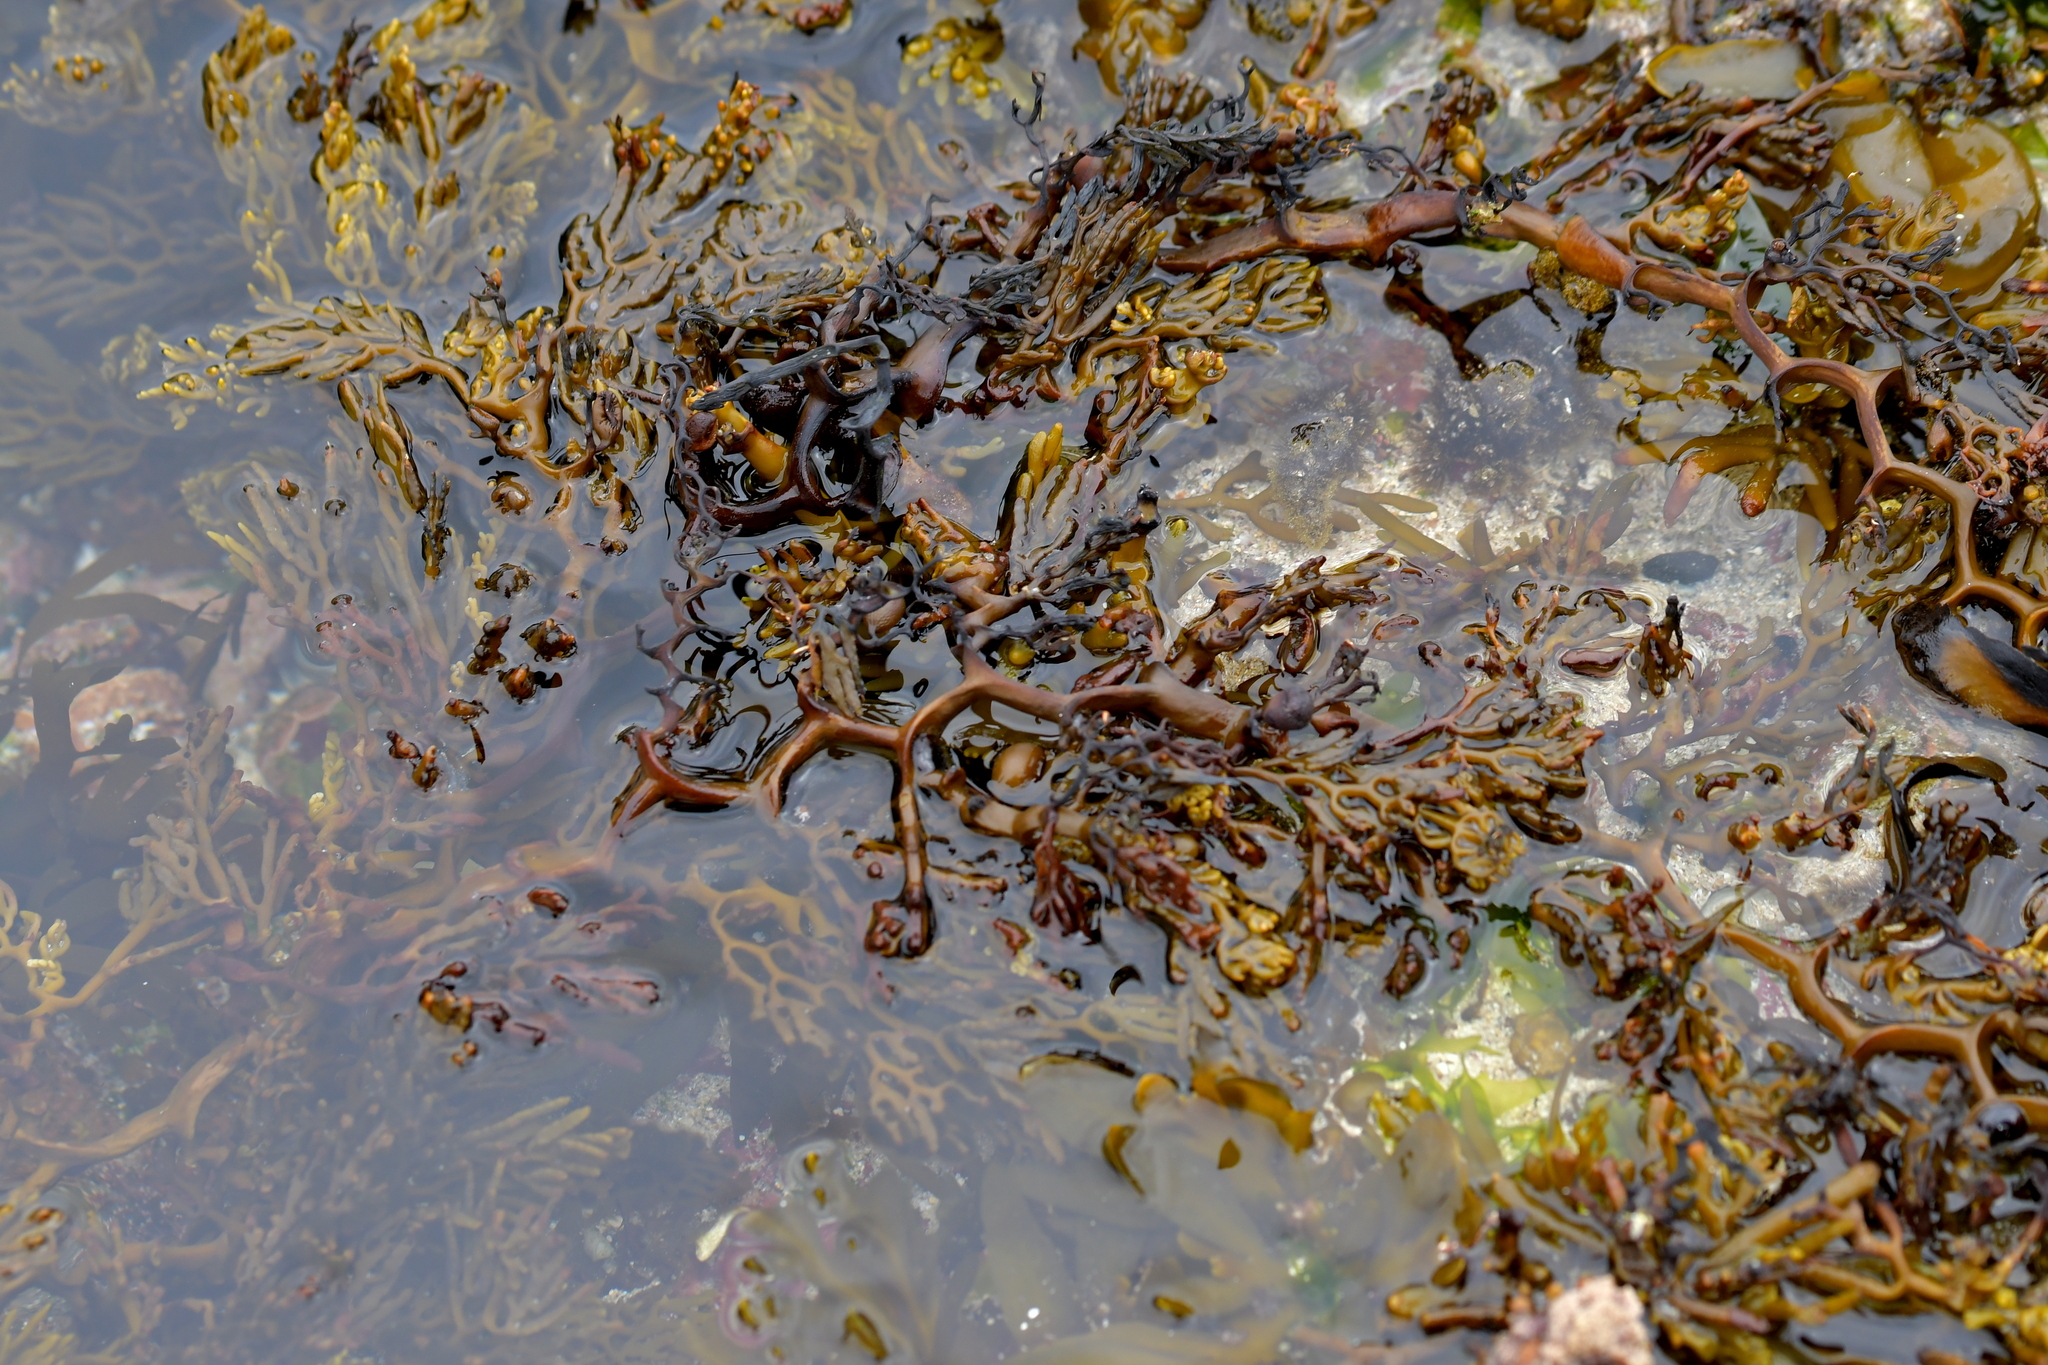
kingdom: Chromista
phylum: Ochrophyta
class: Phaeophyceae
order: Fucales
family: Sargassaceae
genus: Cystophora
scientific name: Cystophora scalaris
